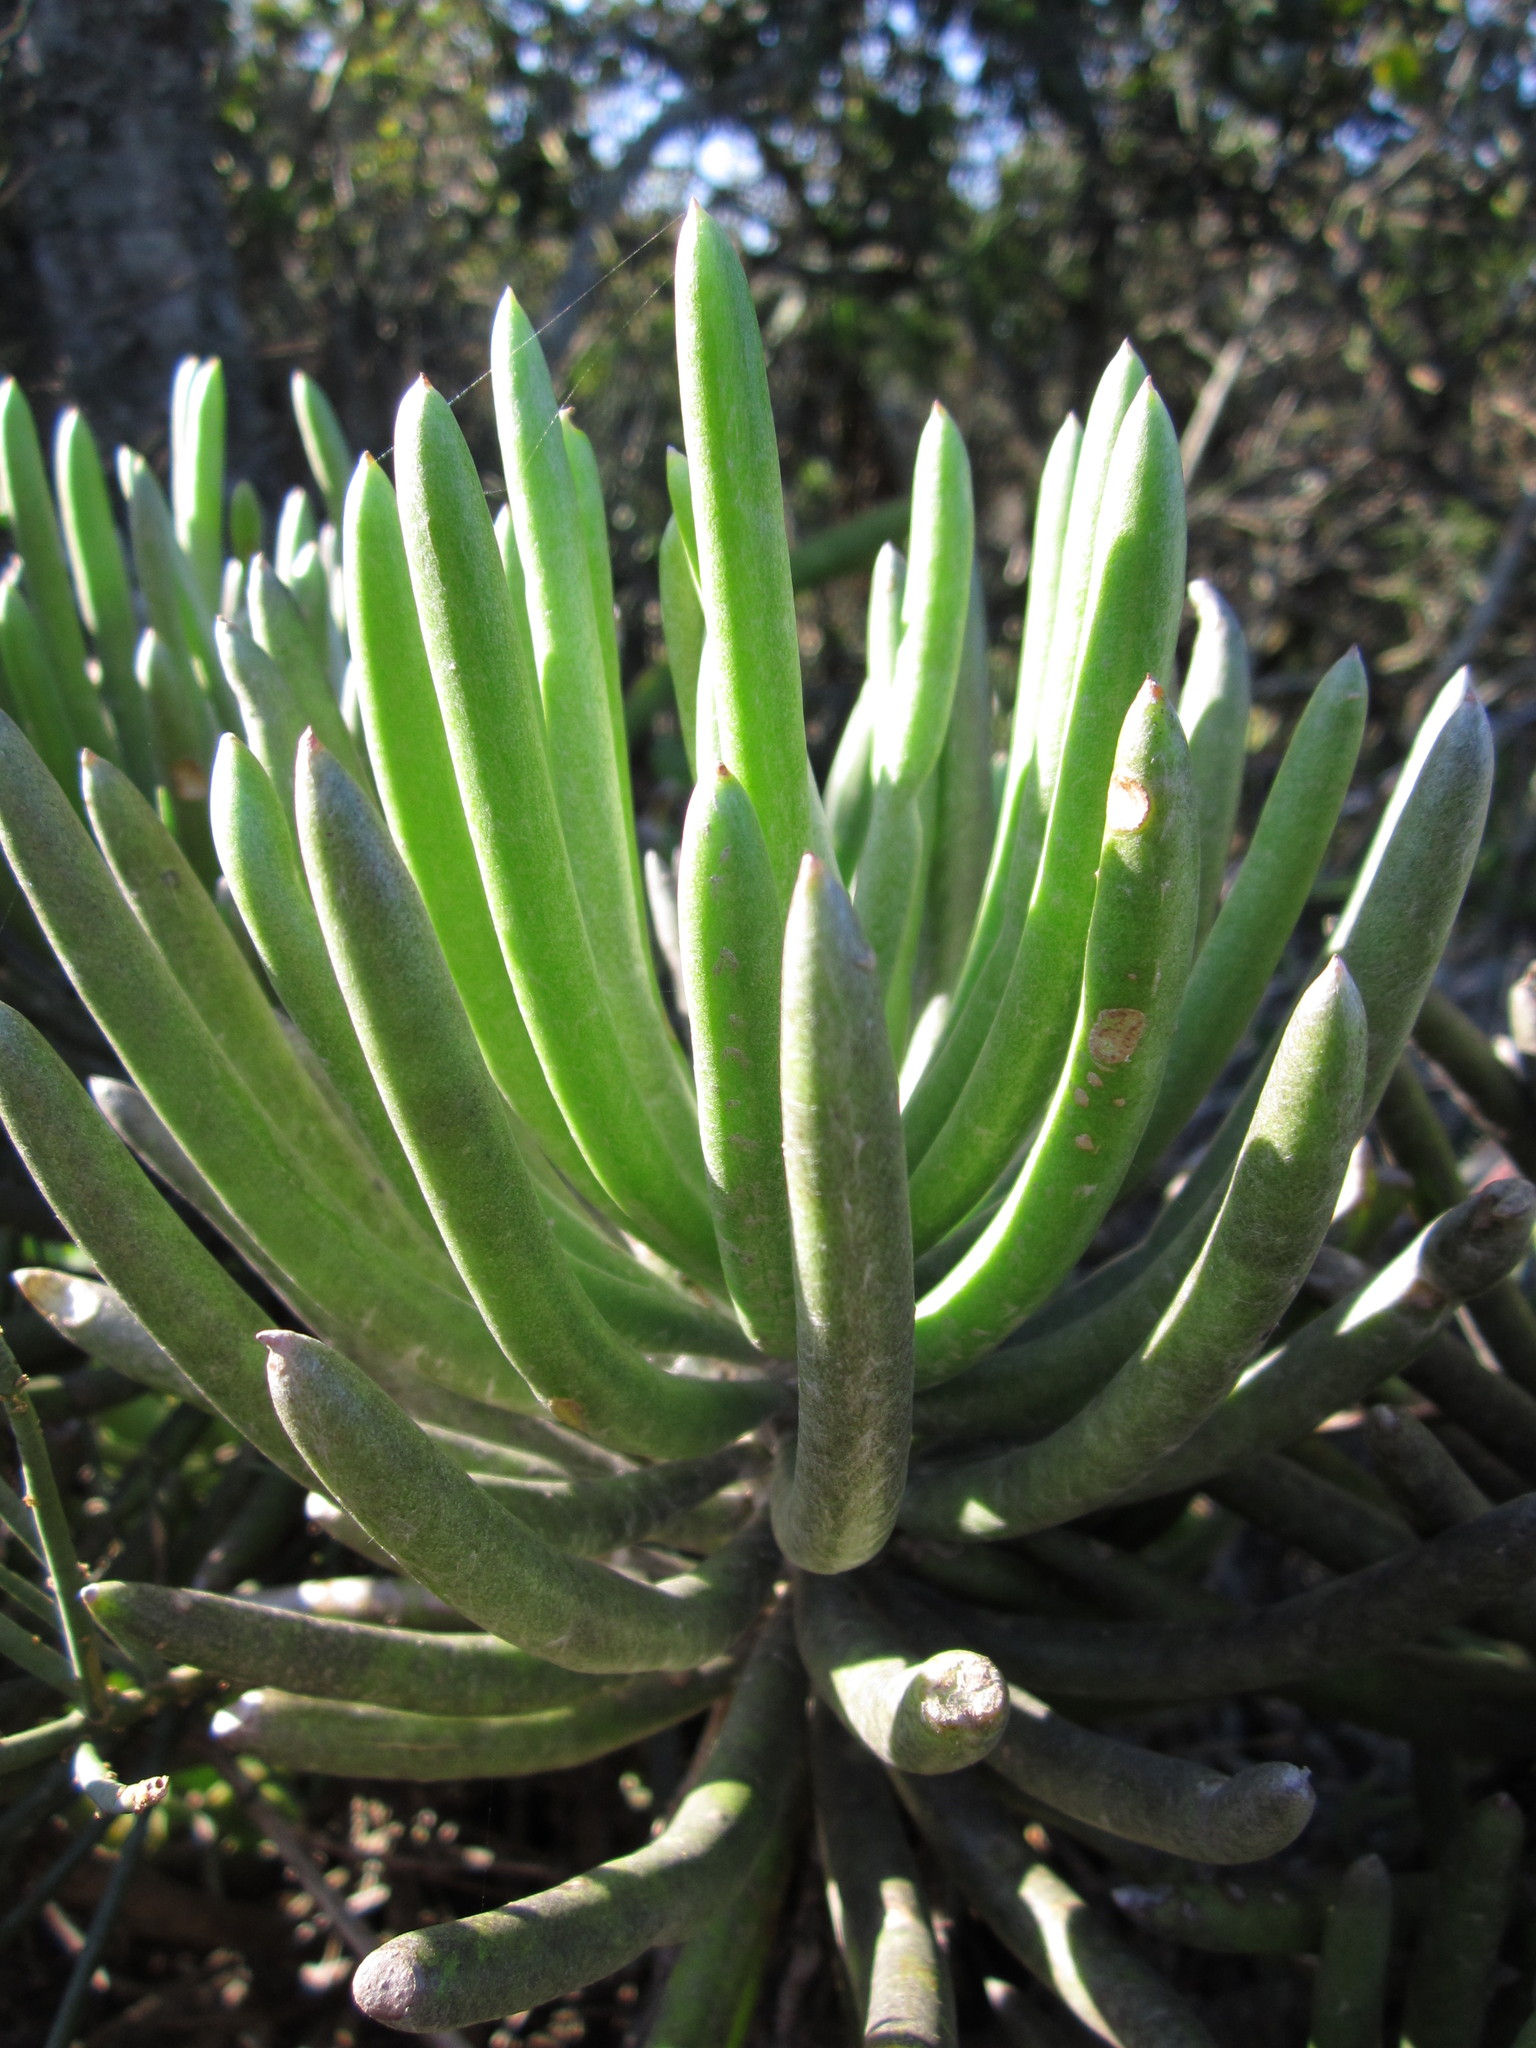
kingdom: Plantae
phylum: Tracheophyta
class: Magnoliopsida
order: Asterales
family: Asteraceae
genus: Caputia
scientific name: Caputia pyramidata
